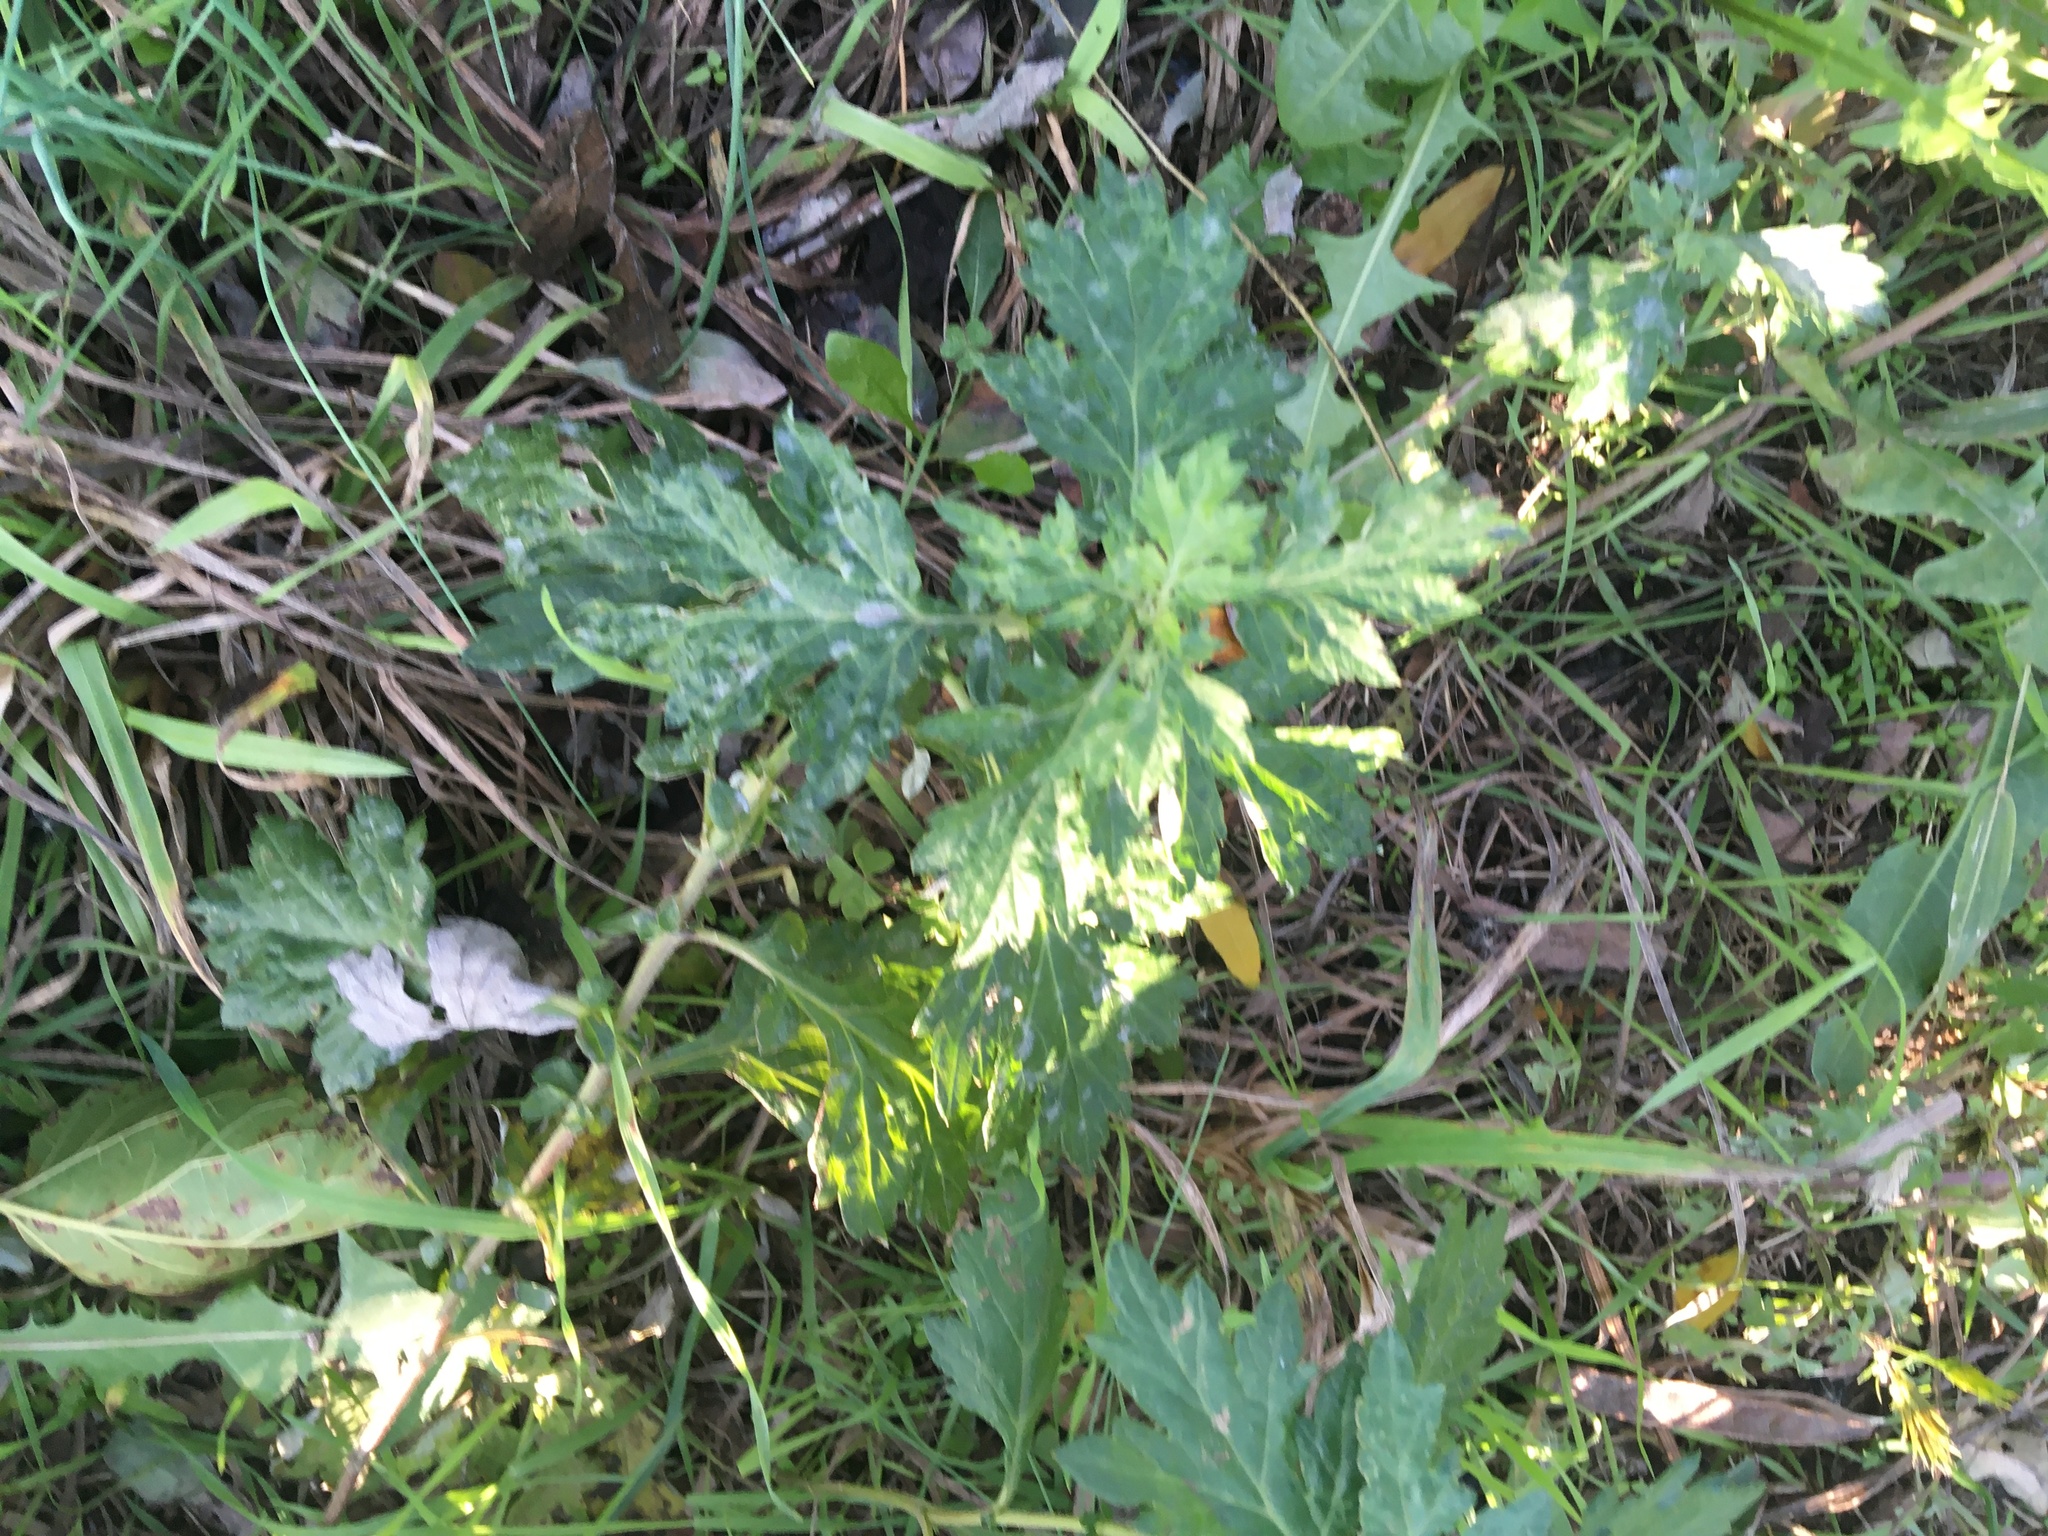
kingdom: Plantae
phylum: Tracheophyta
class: Magnoliopsida
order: Asterales
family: Asteraceae
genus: Artemisia
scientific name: Artemisia vulgaris
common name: Mugwort
